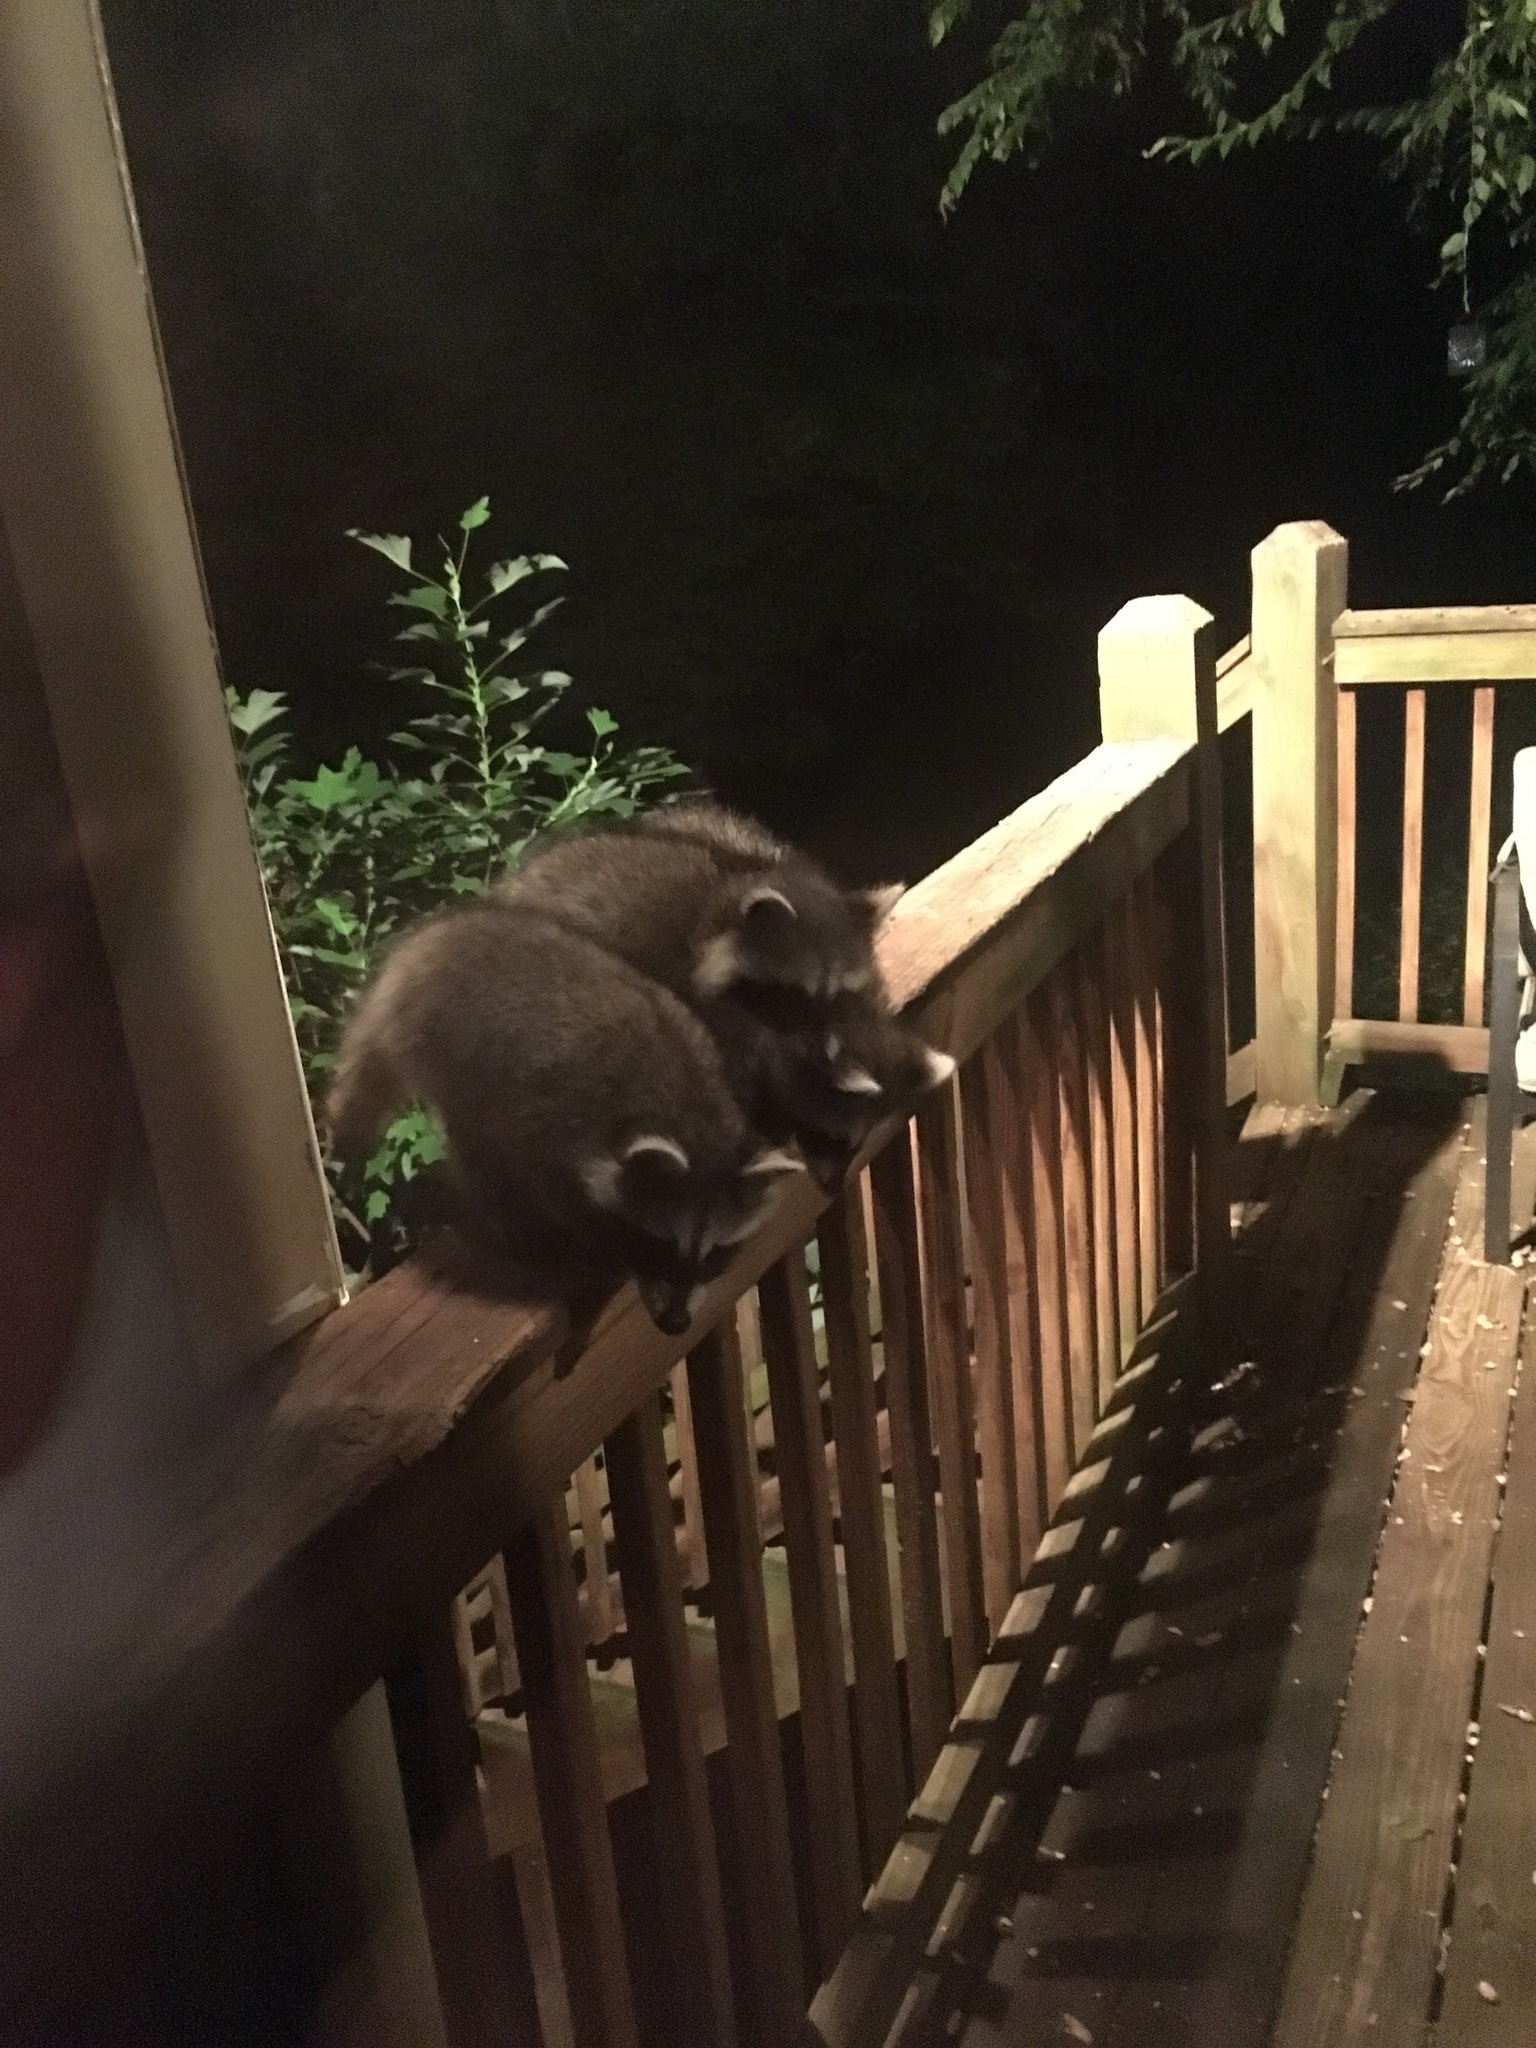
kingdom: Animalia
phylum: Chordata
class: Mammalia
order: Carnivora
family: Procyonidae
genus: Procyon
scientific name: Procyon lotor
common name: Raccoon
